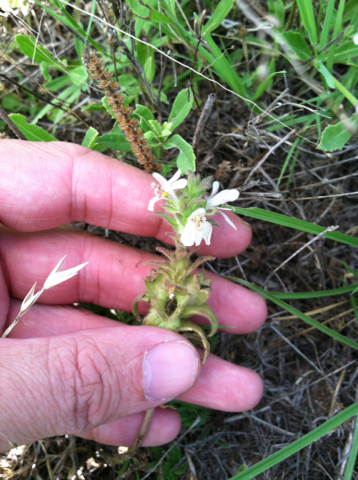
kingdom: Plantae
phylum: Tracheophyta
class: Magnoliopsida
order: Lamiales
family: Orobanchaceae
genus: Bellardia
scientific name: Bellardia trixago
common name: Mediterranean lineseed
